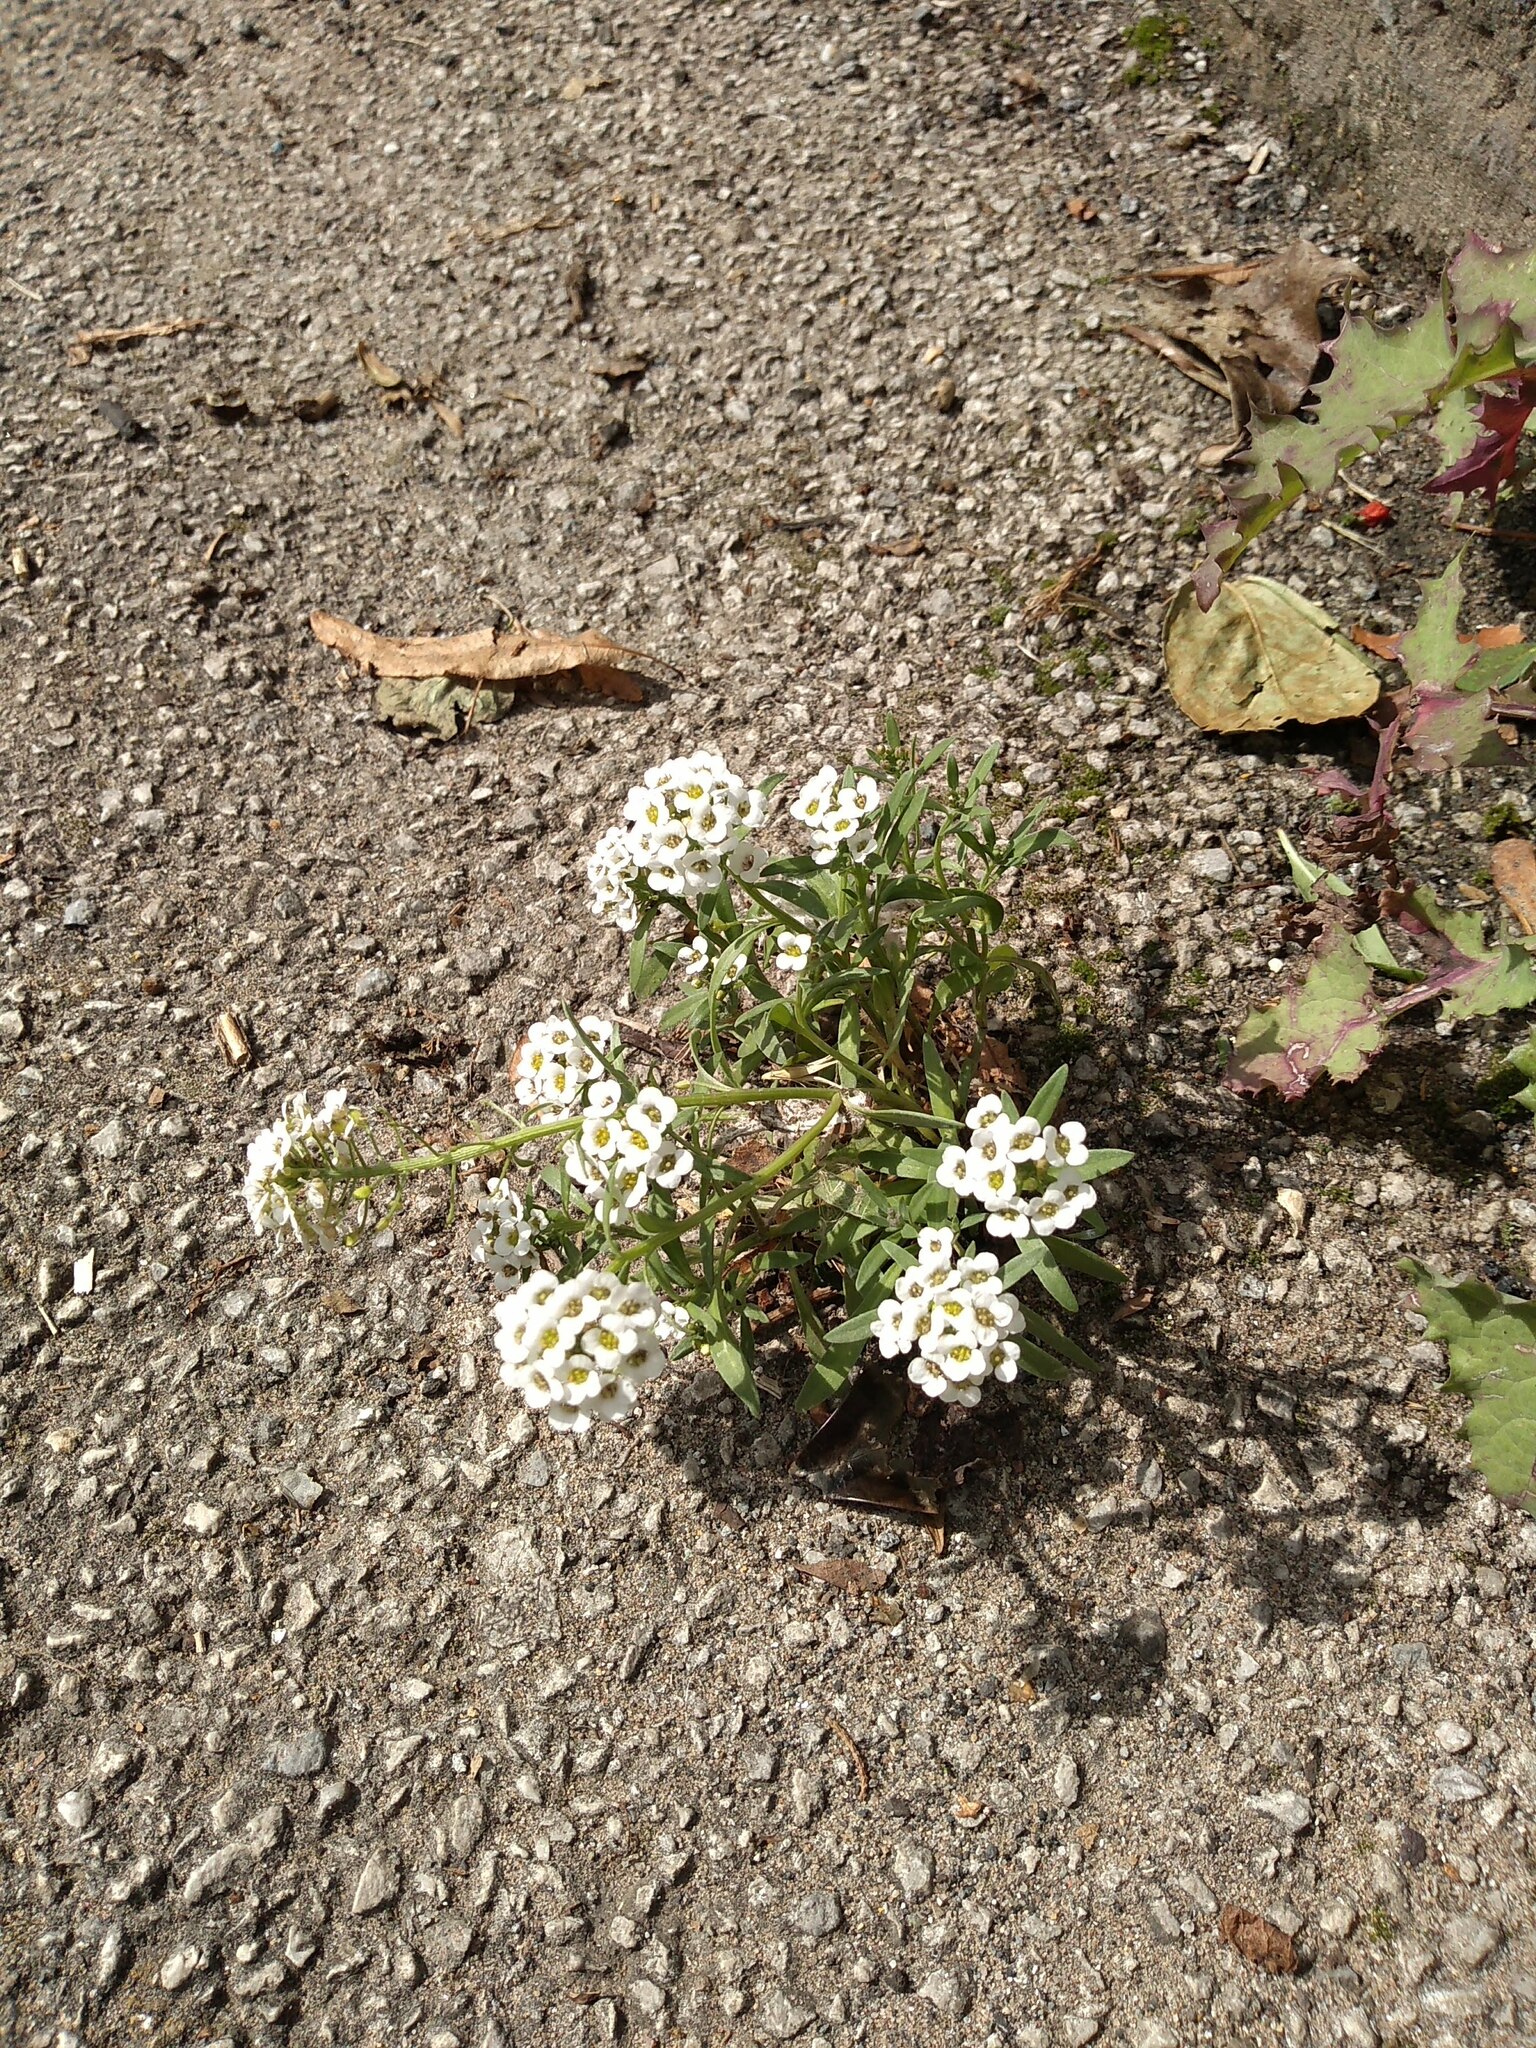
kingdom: Plantae
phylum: Tracheophyta
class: Magnoliopsida
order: Brassicales
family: Brassicaceae
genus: Lobularia
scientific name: Lobularia maritima
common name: Sweet alison
